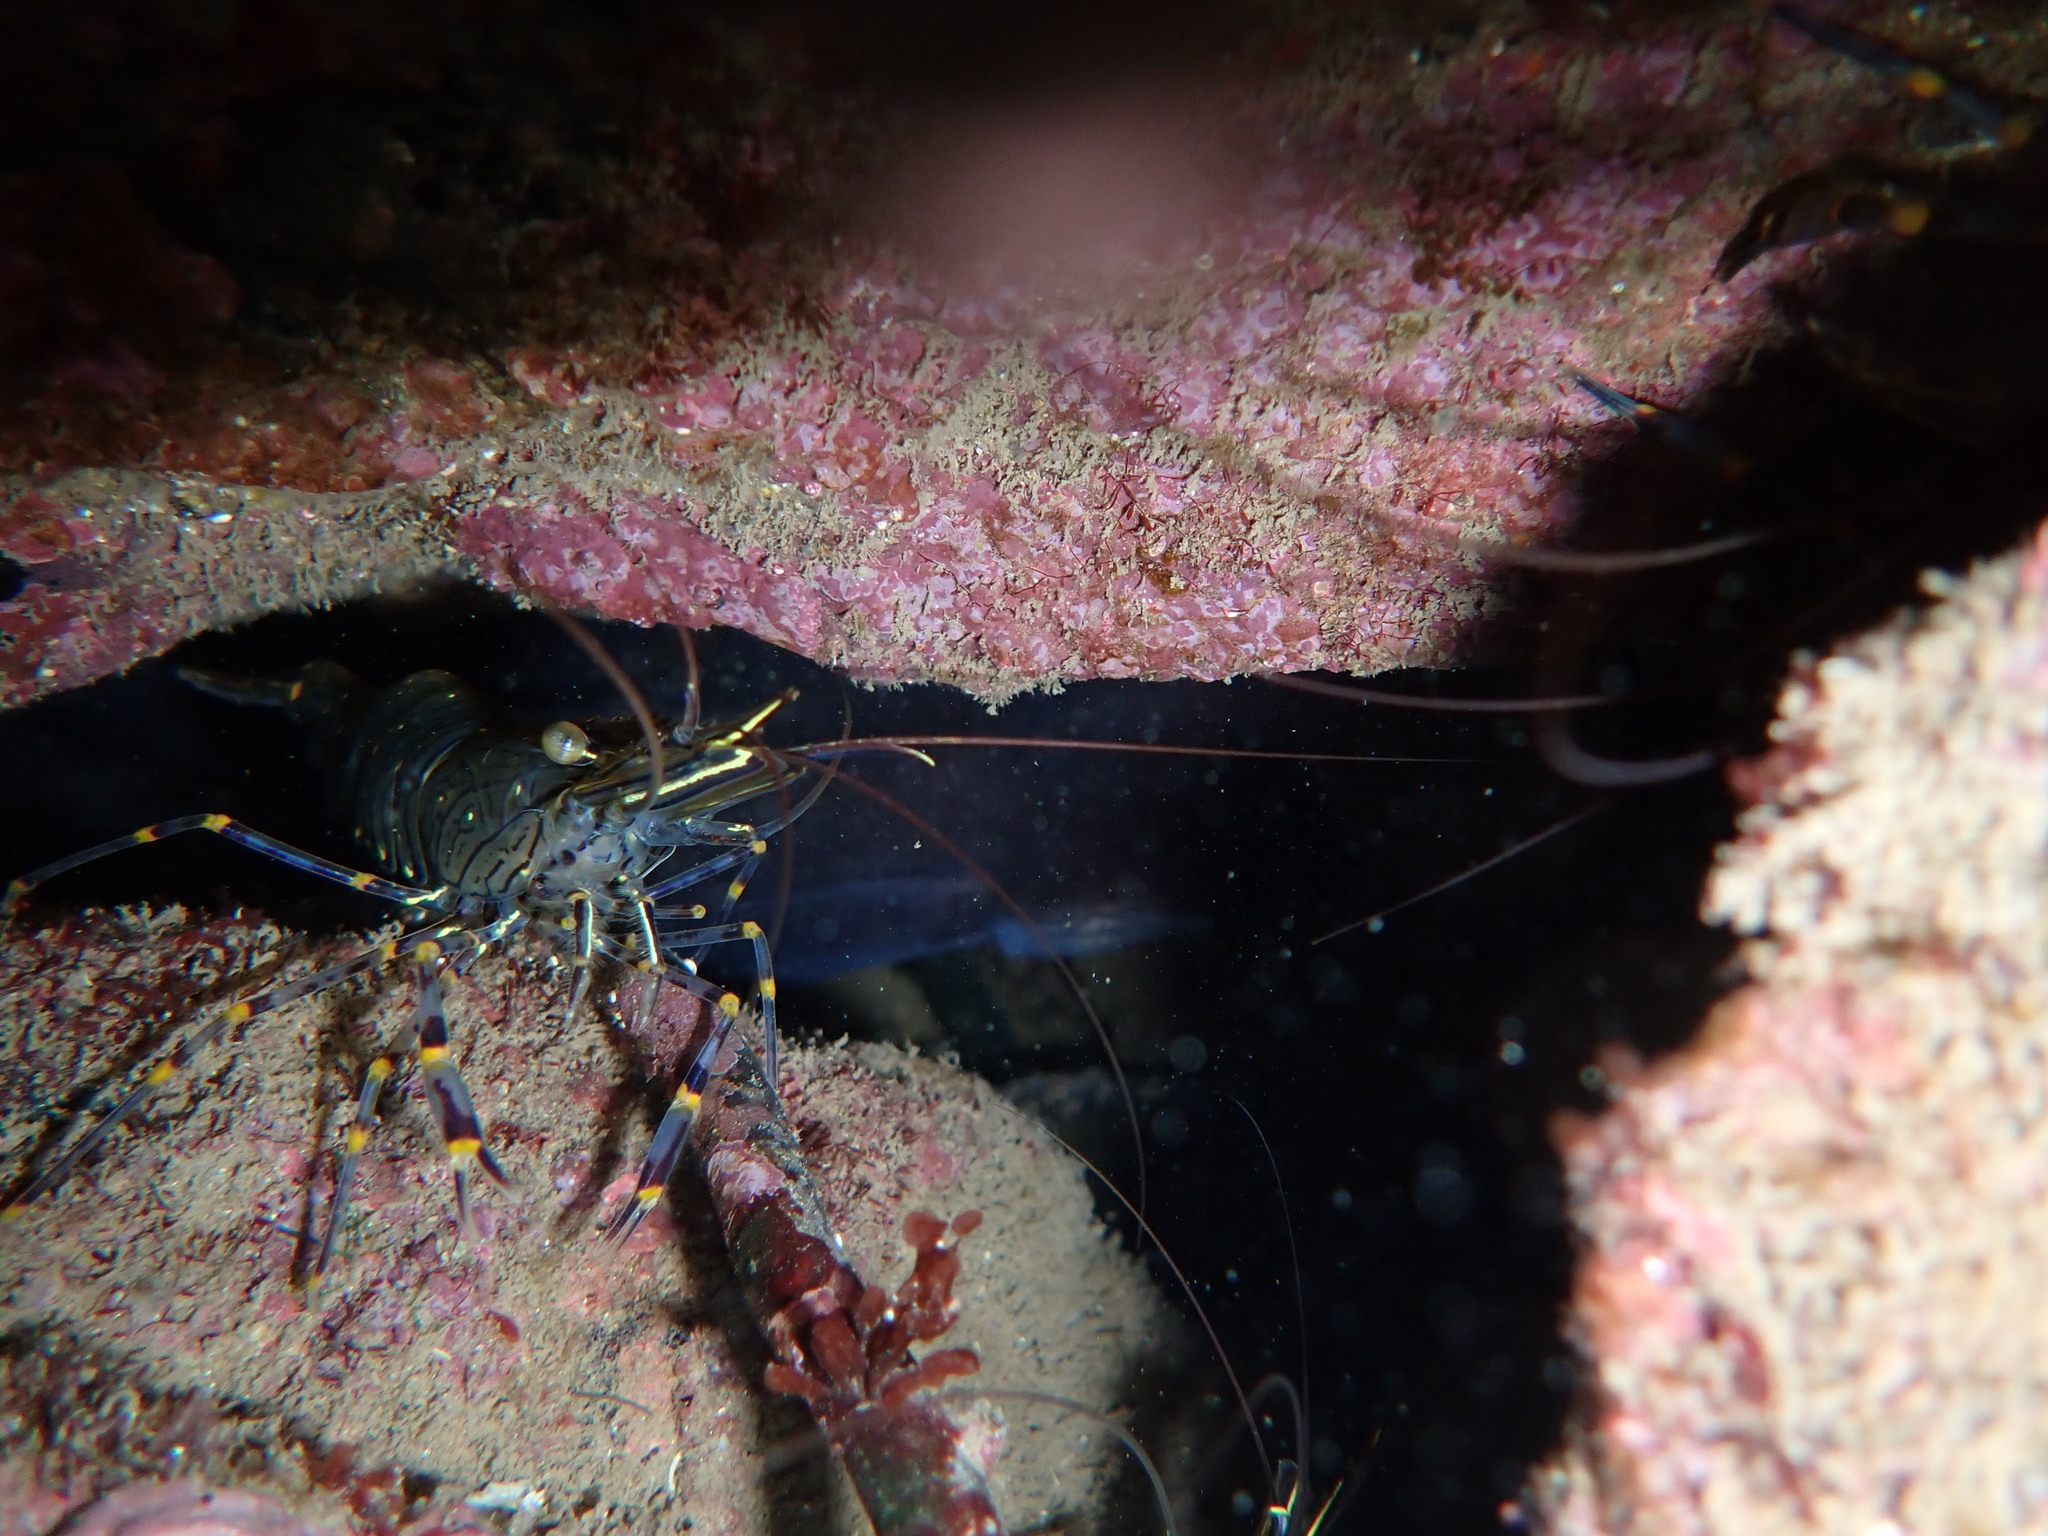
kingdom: Animalia
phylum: Arthropoda
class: Malacostraca
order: Decapoda
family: Palaemonidae
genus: Palaemon
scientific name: Palaemon serratus
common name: Common prawn
